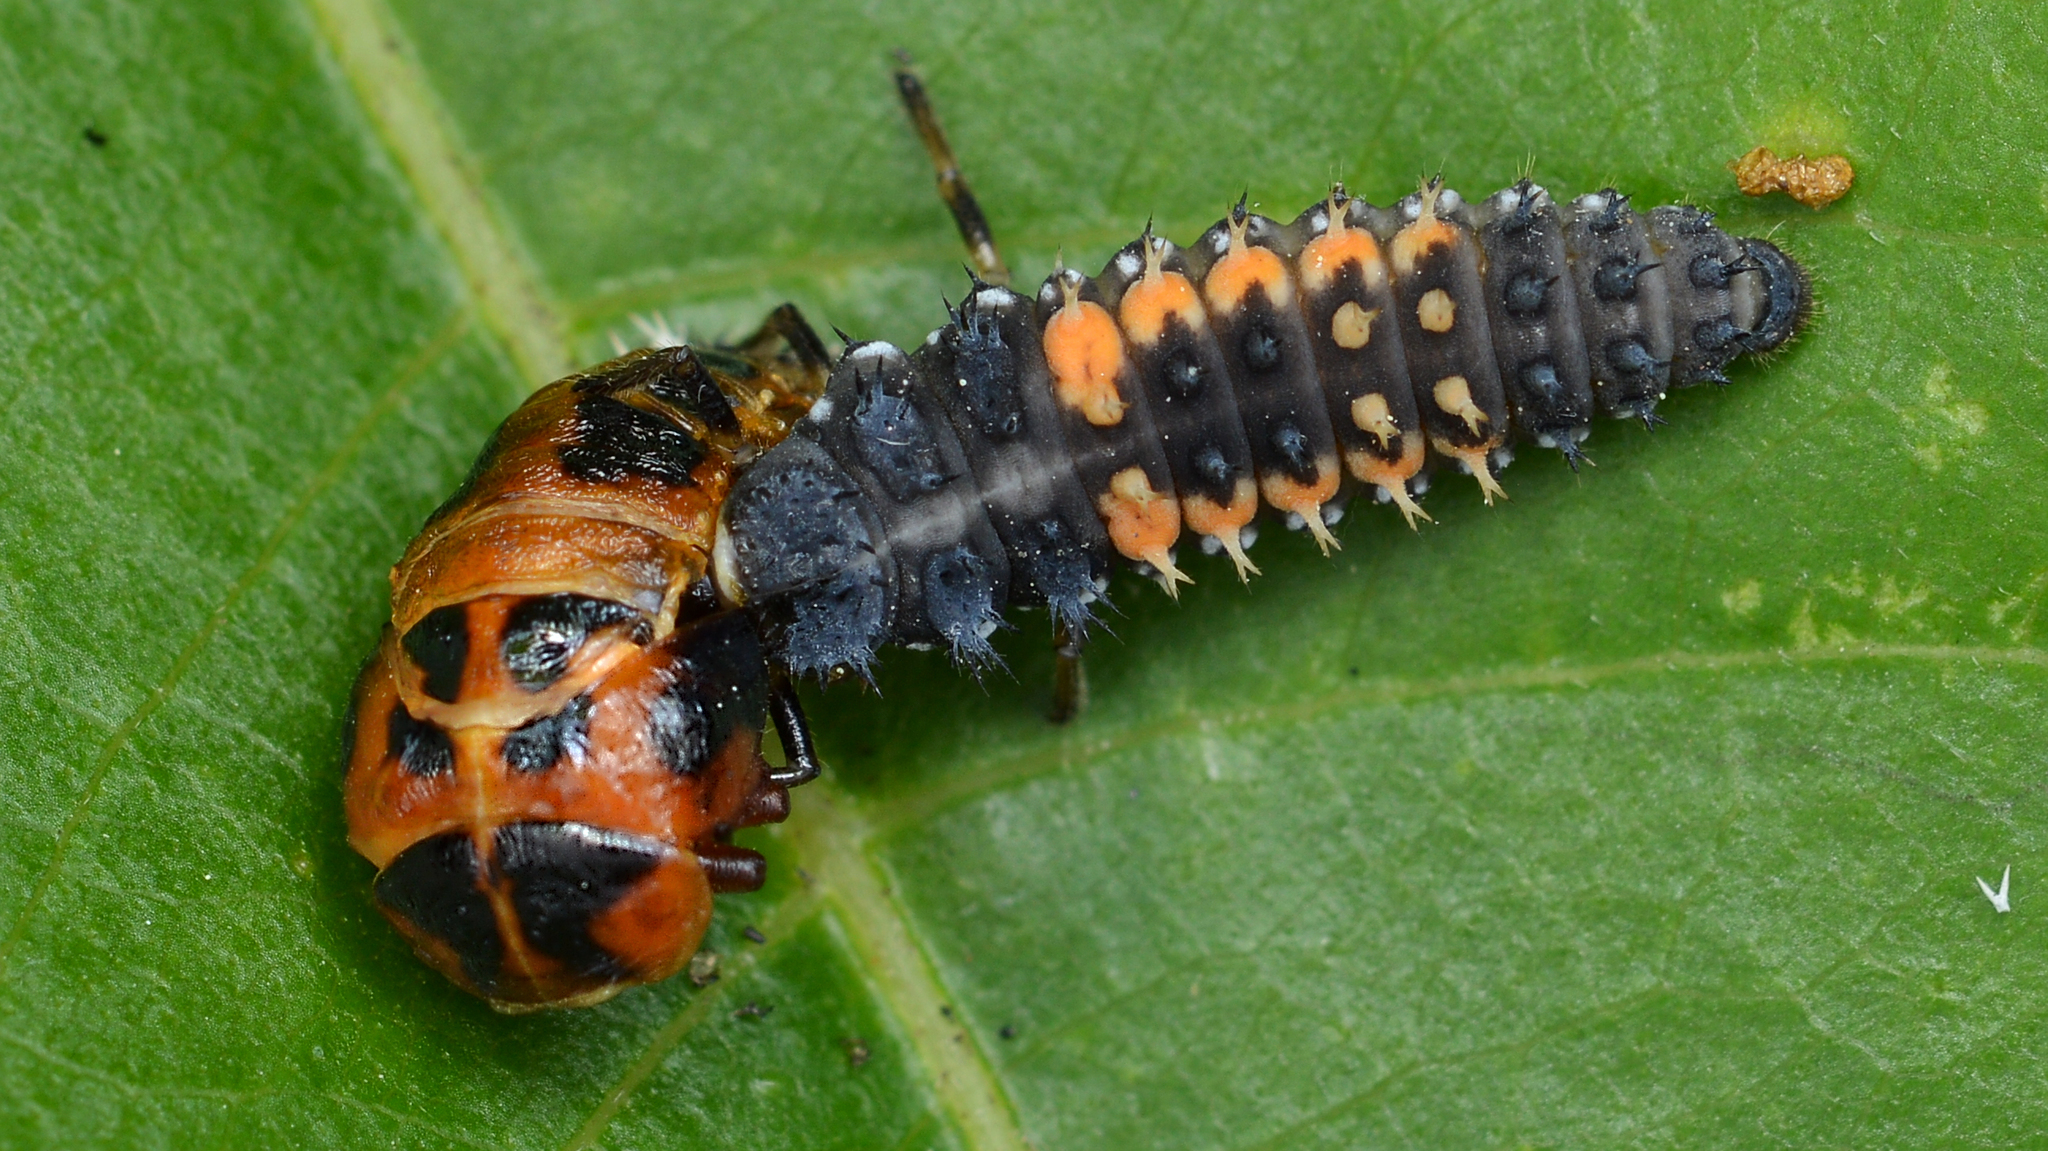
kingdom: Animalia
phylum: Arthropoda
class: Insecta
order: Coleoptera
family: Coccinellidae
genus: Harmonia
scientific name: Harmonia axyridis
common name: Harlequin ladybird
